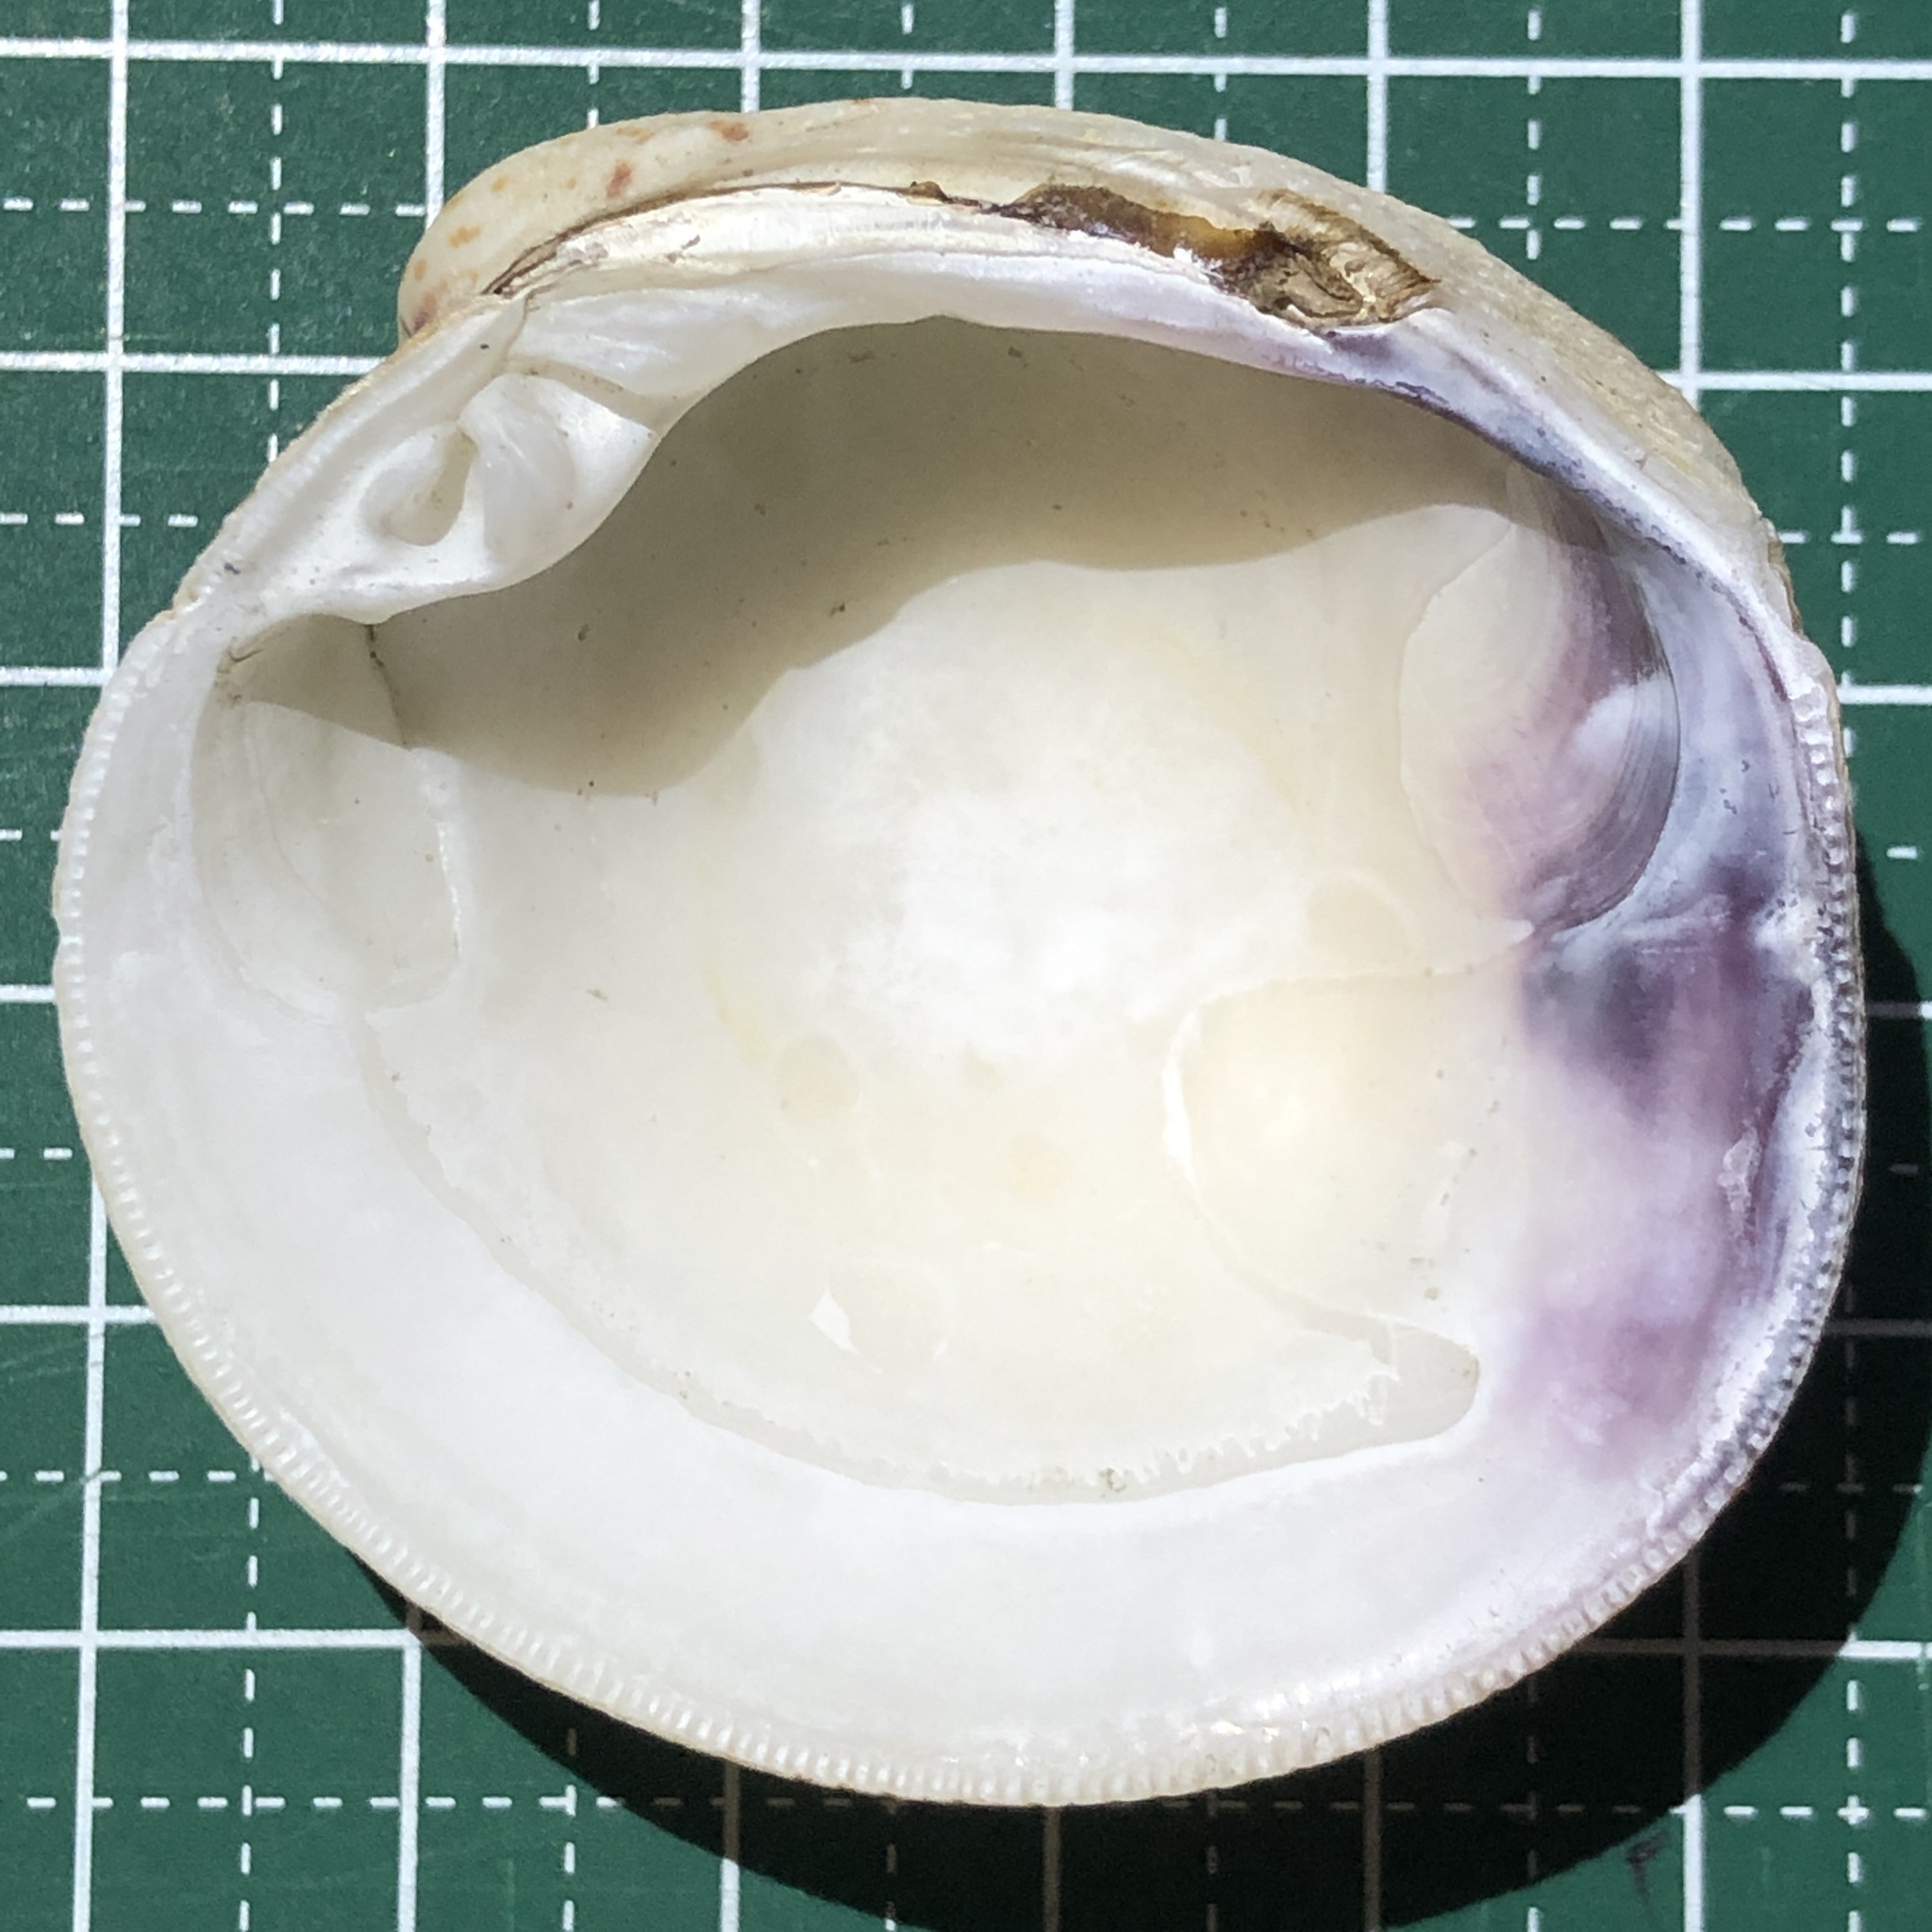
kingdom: Animalia
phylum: Mollusca
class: Bivalvia
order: Venerida
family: Veneridae
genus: Periglypta
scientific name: Periglypta puerpera
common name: Youthful venus
